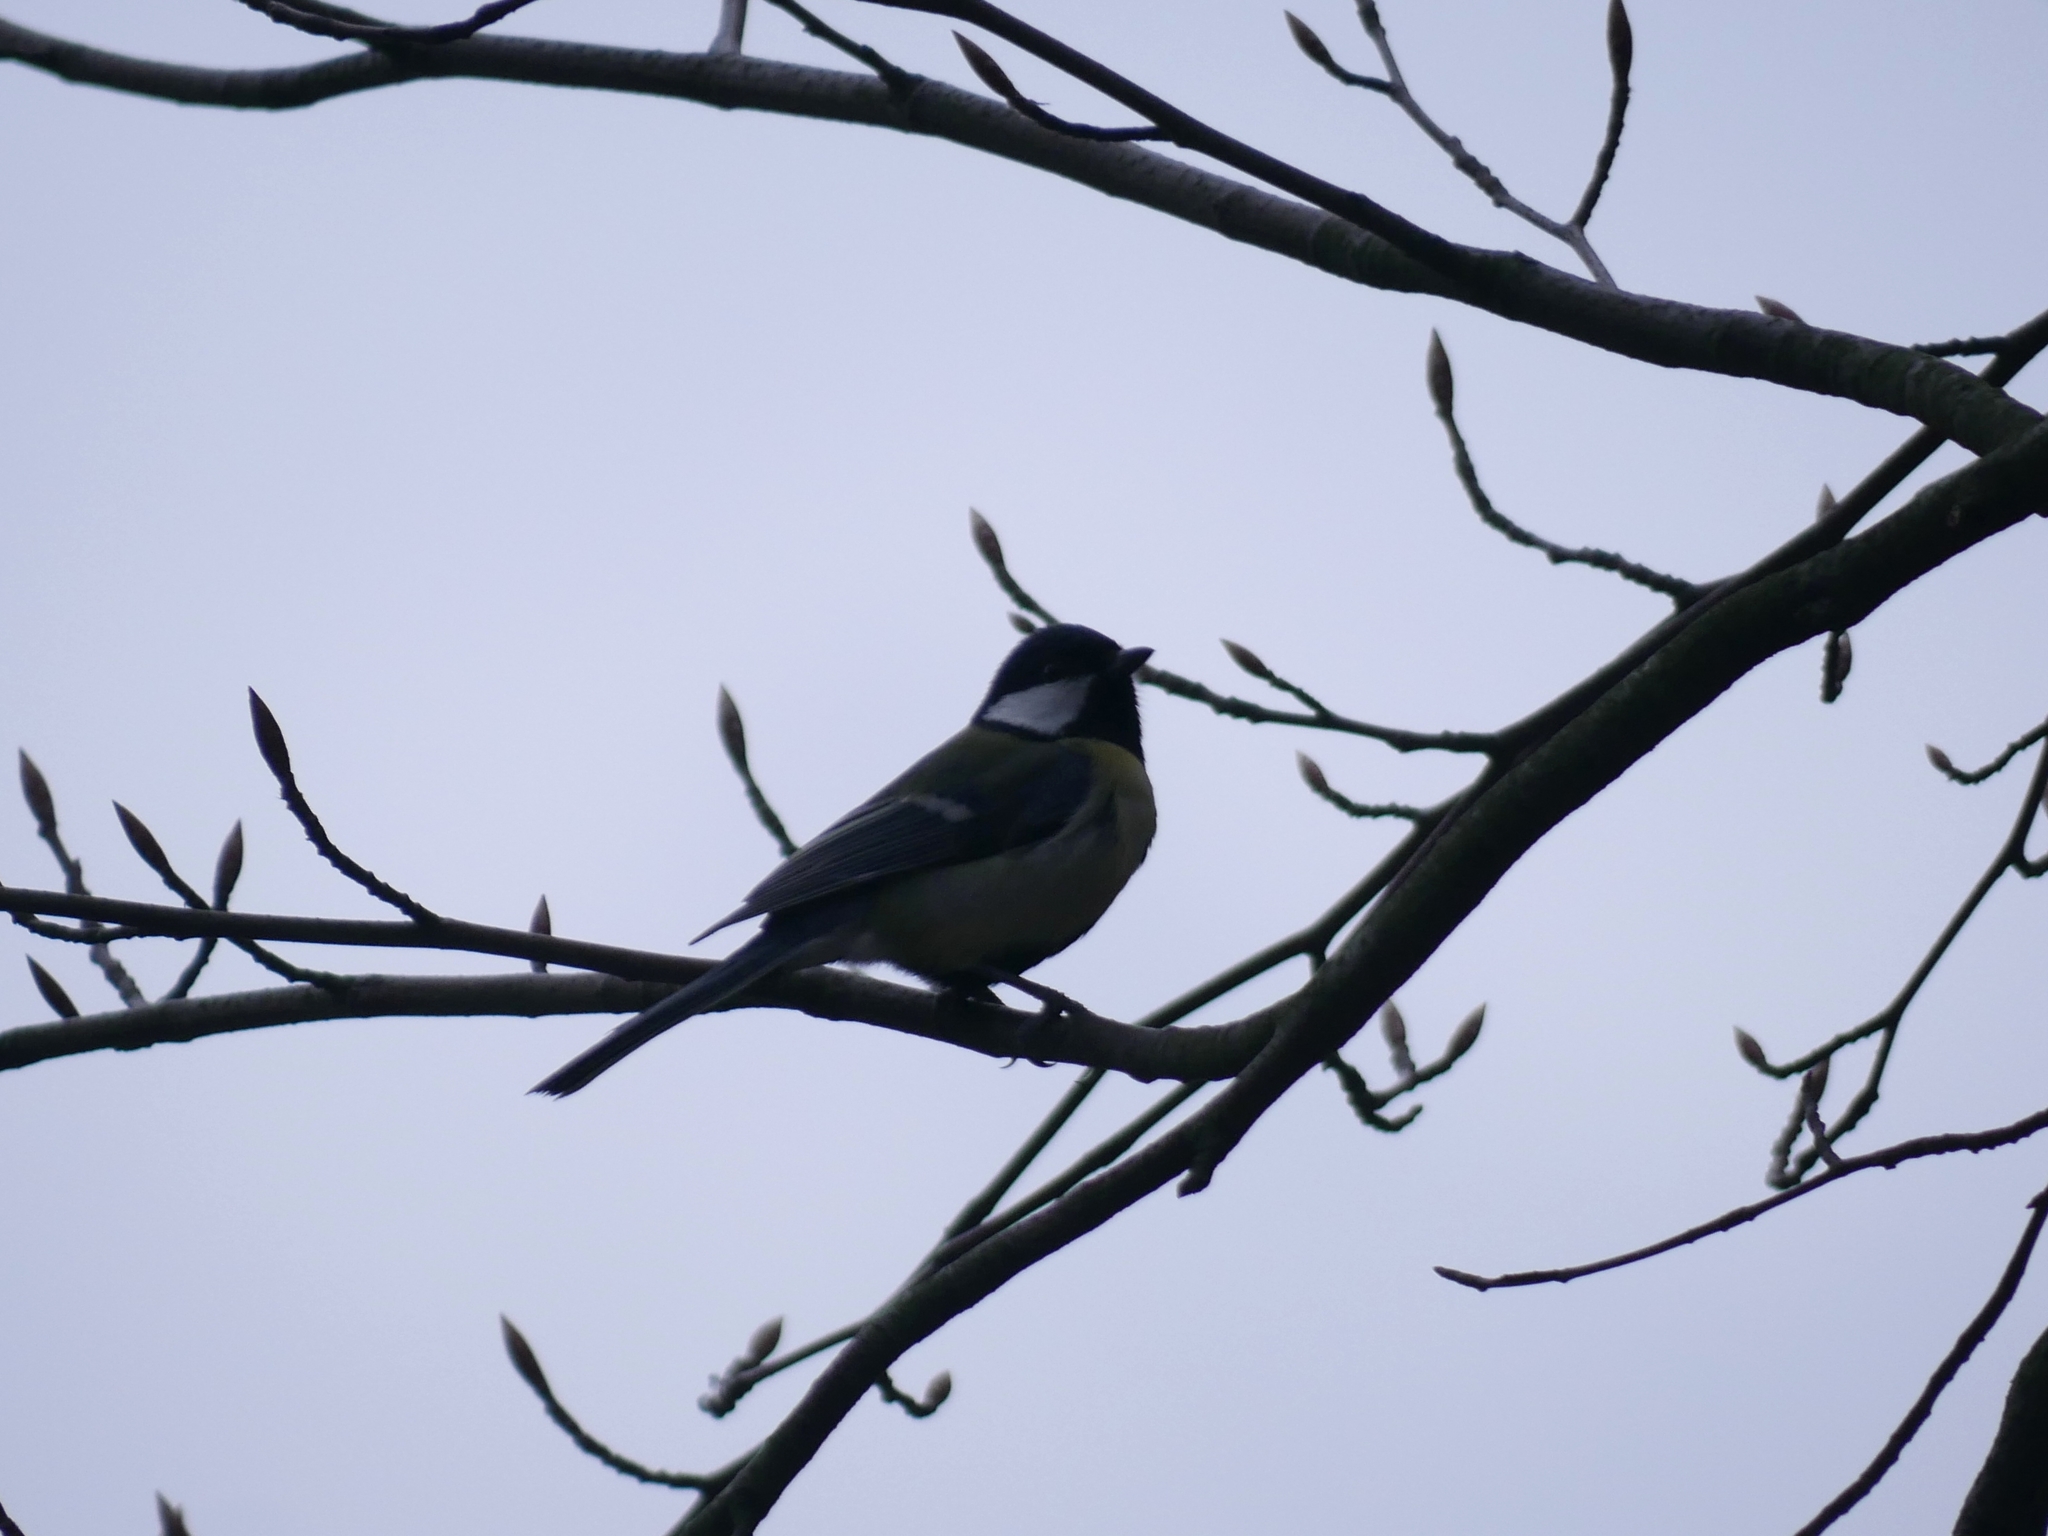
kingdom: Animalia
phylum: Chordata
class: Aves
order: Passeriformes
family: Paridae
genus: Parus
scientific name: Parus major
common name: Great tit
